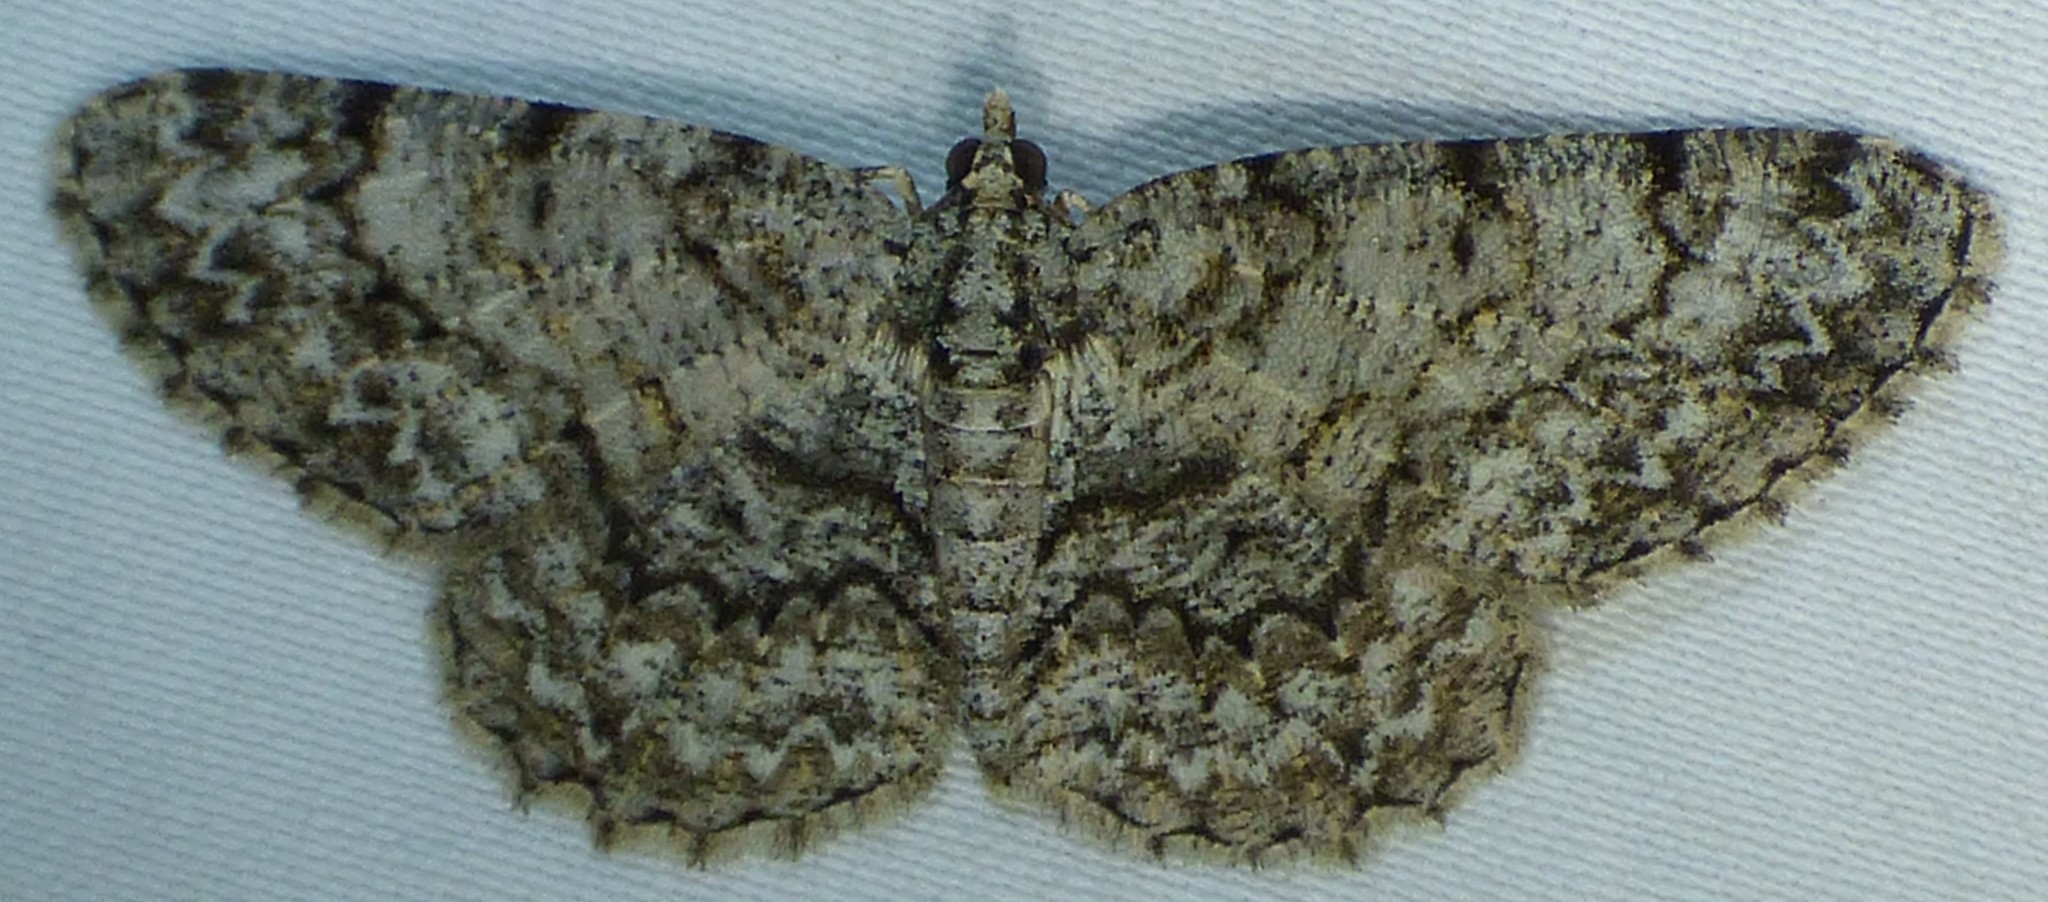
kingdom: Animalia
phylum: Arthropoda
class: Insecta
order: Lepidoptera
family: Geometridae
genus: Protoboarmia
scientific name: Protoboarmia porcelaria
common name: Porcelain gray
